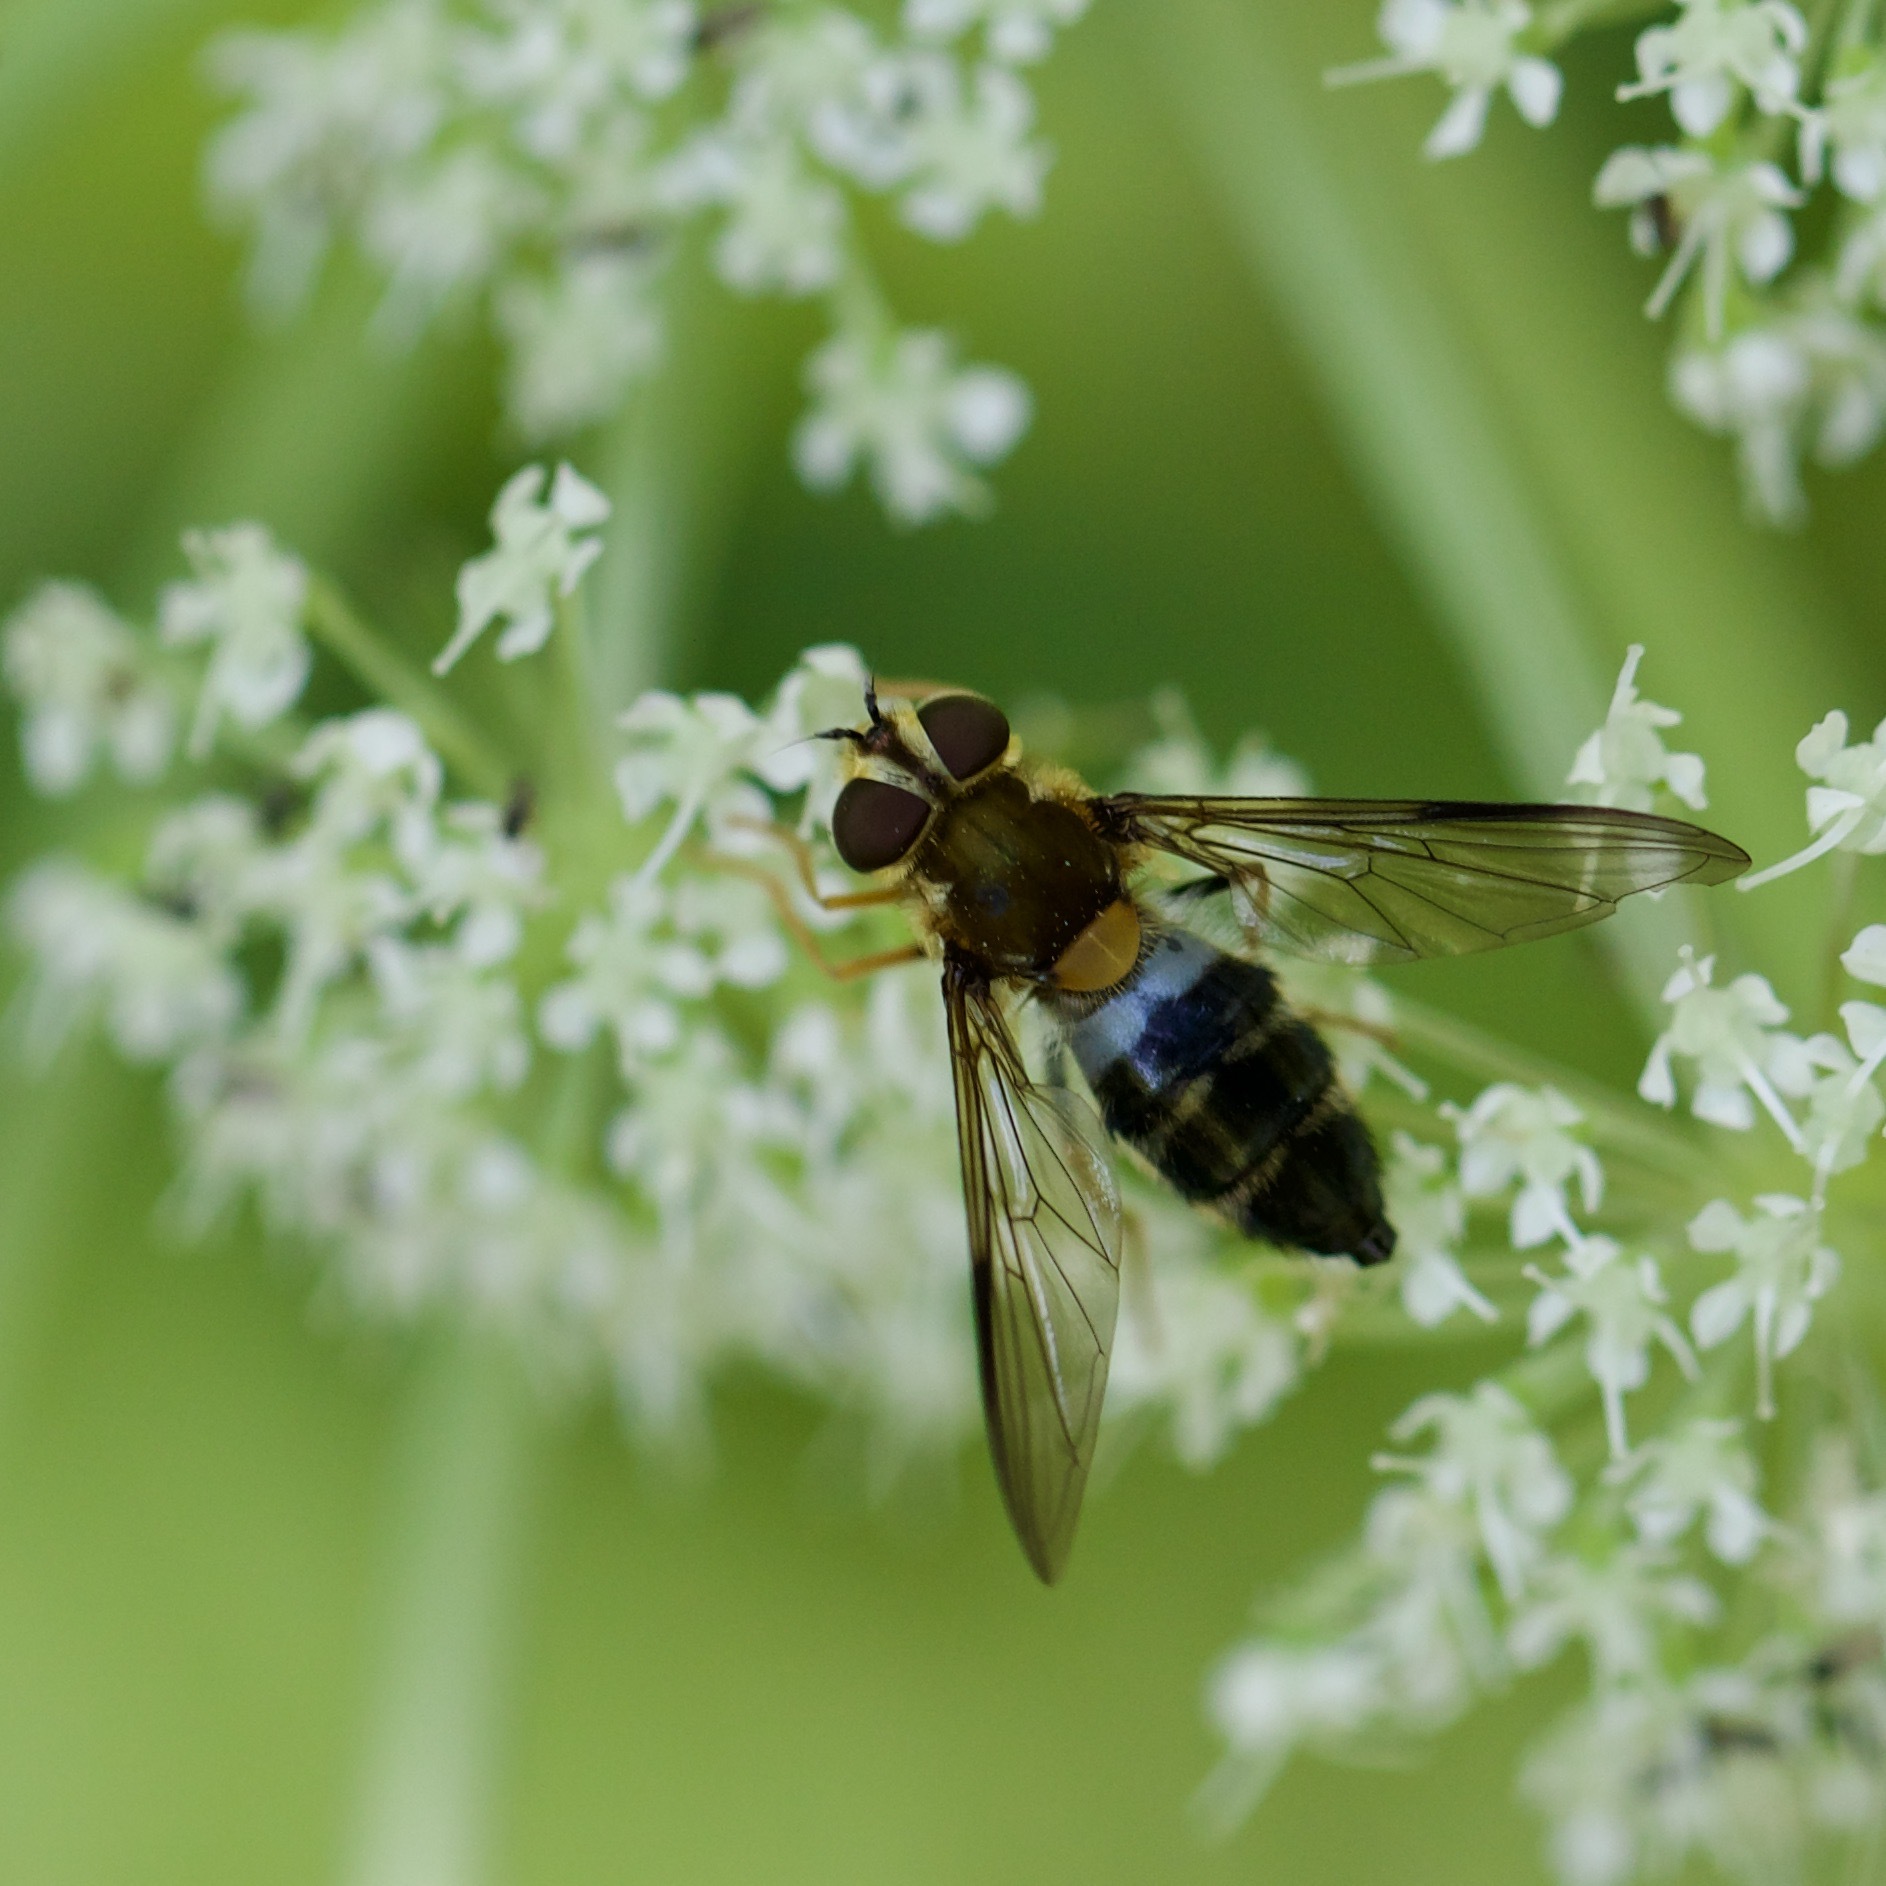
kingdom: Animalia
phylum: Arthropoda
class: Insecta
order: Diptera
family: Syrphidae
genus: Leucozona
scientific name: Leucozona glaucia
